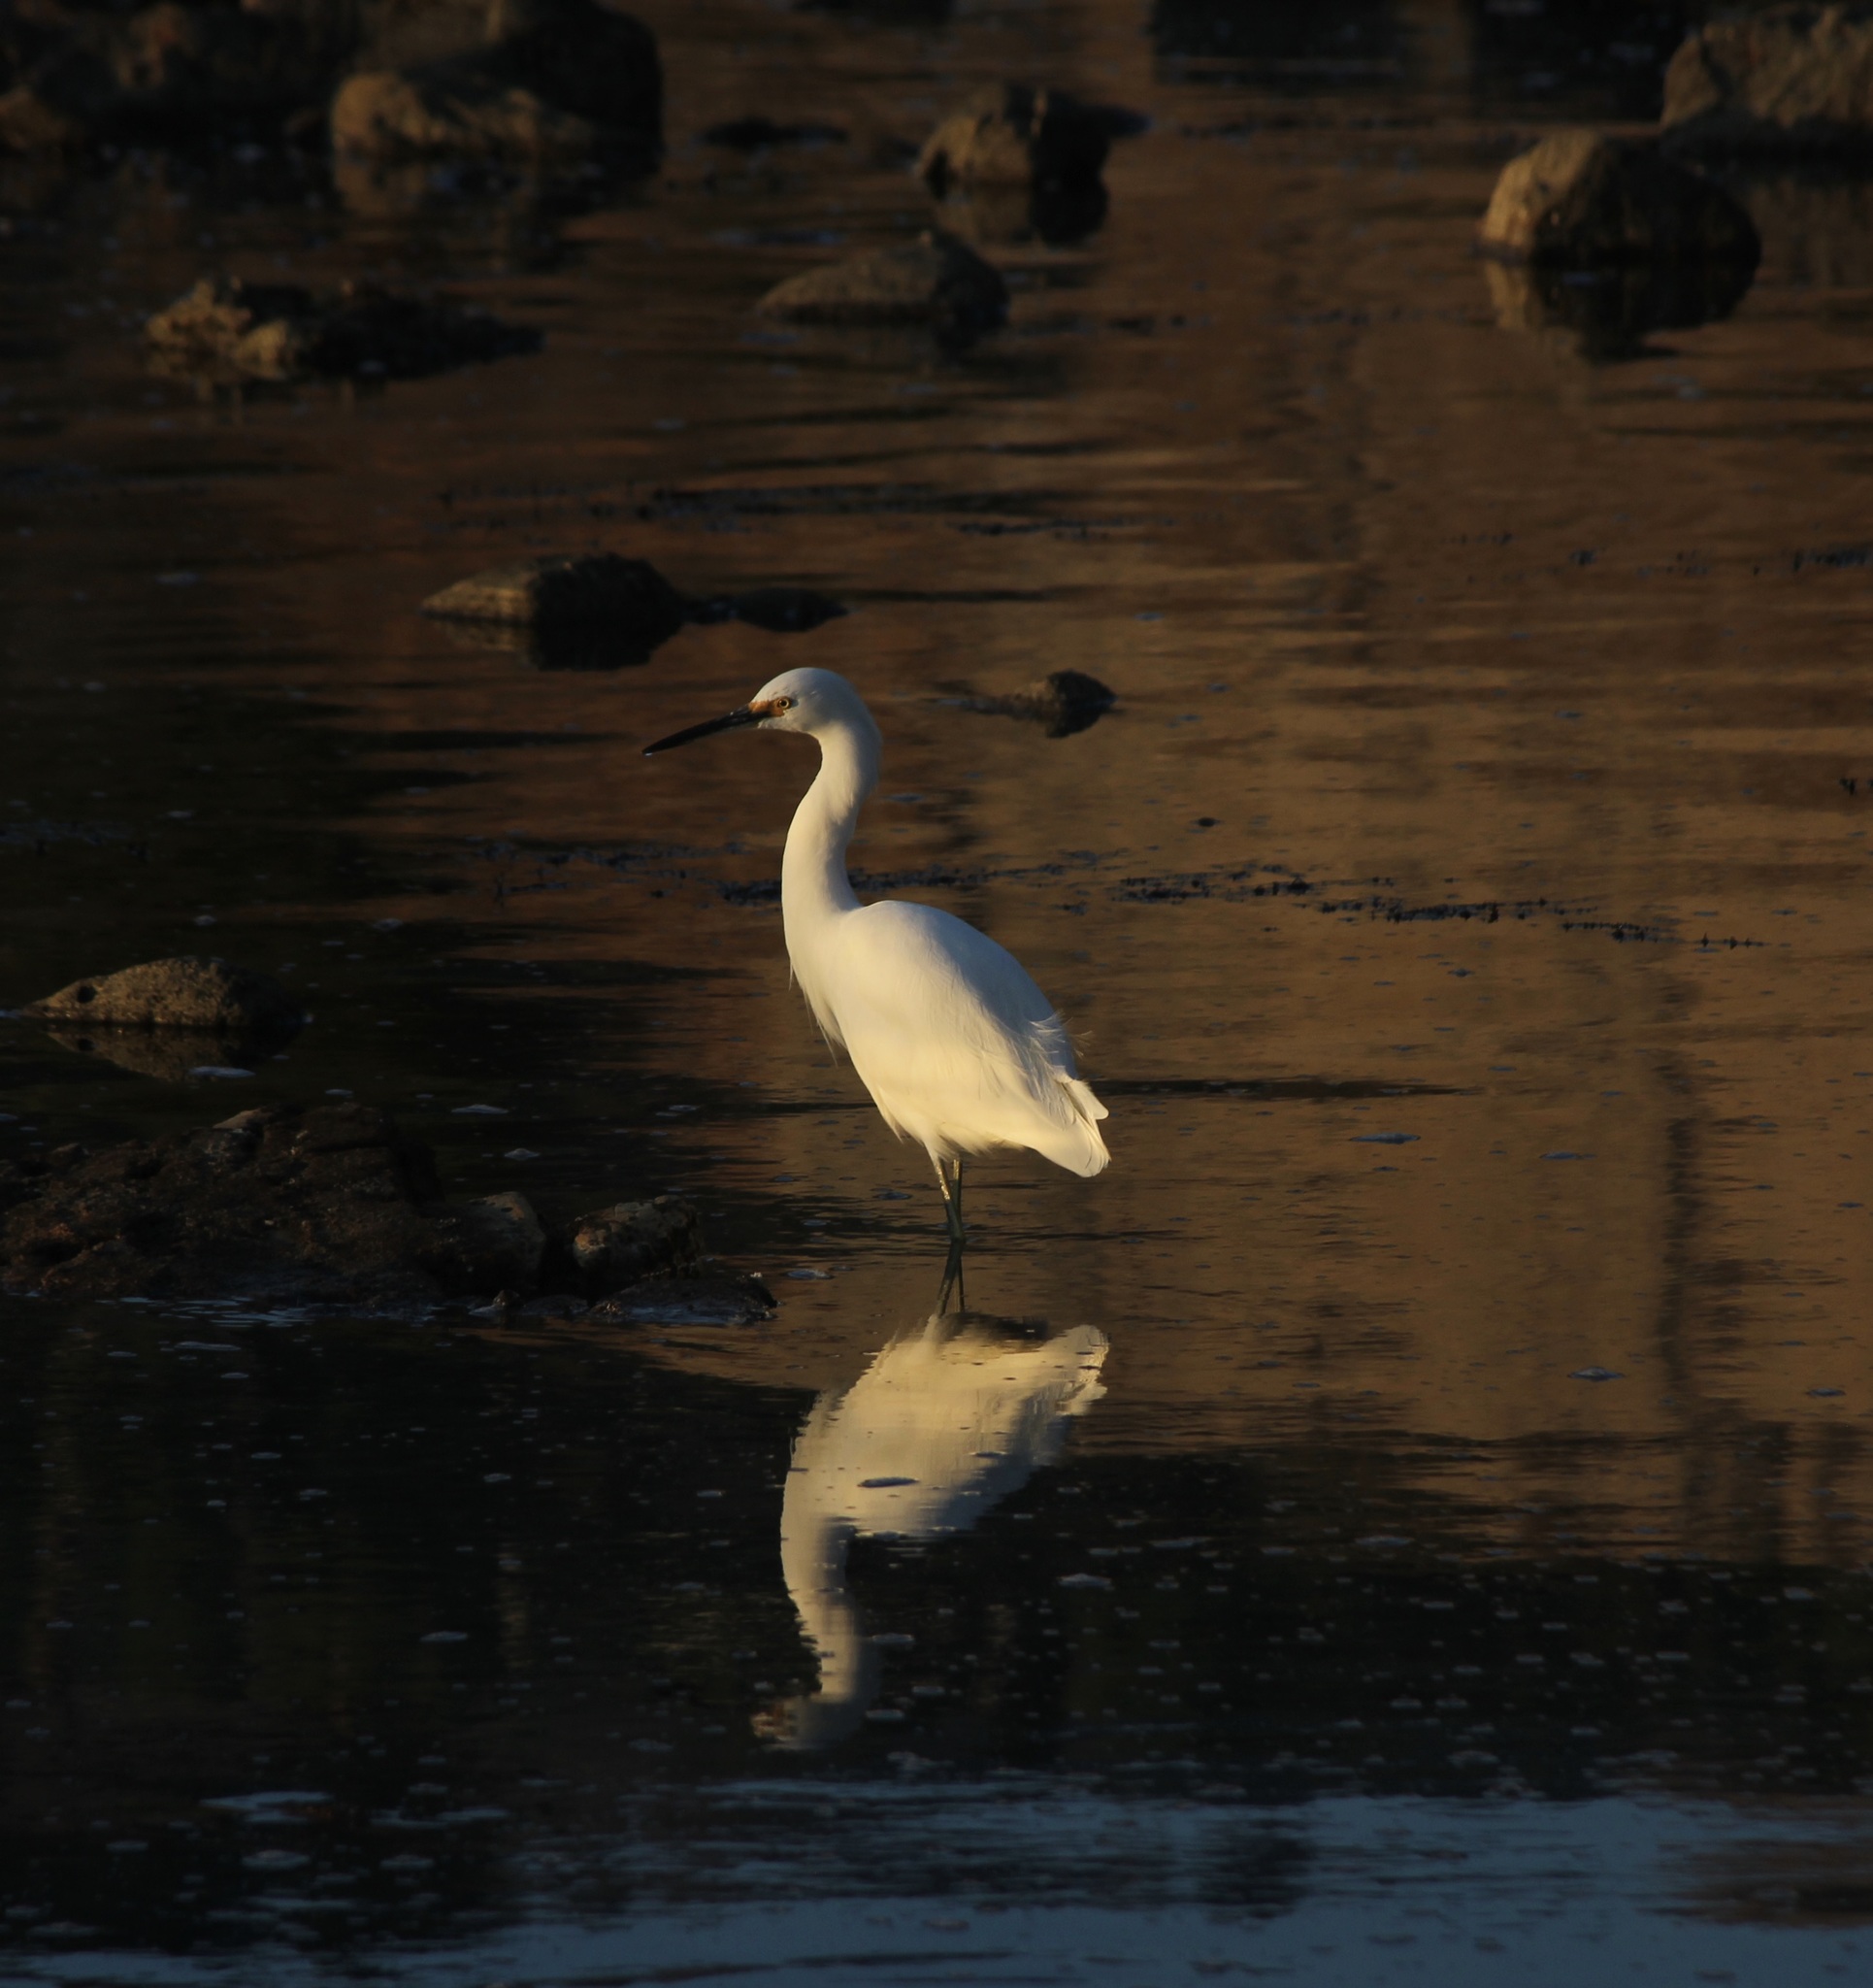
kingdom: Animalia
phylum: Chordata
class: Aves
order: Pelecaniformes
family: Ardeidae
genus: Egretta
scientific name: Egretta thula
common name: Snowy egret
